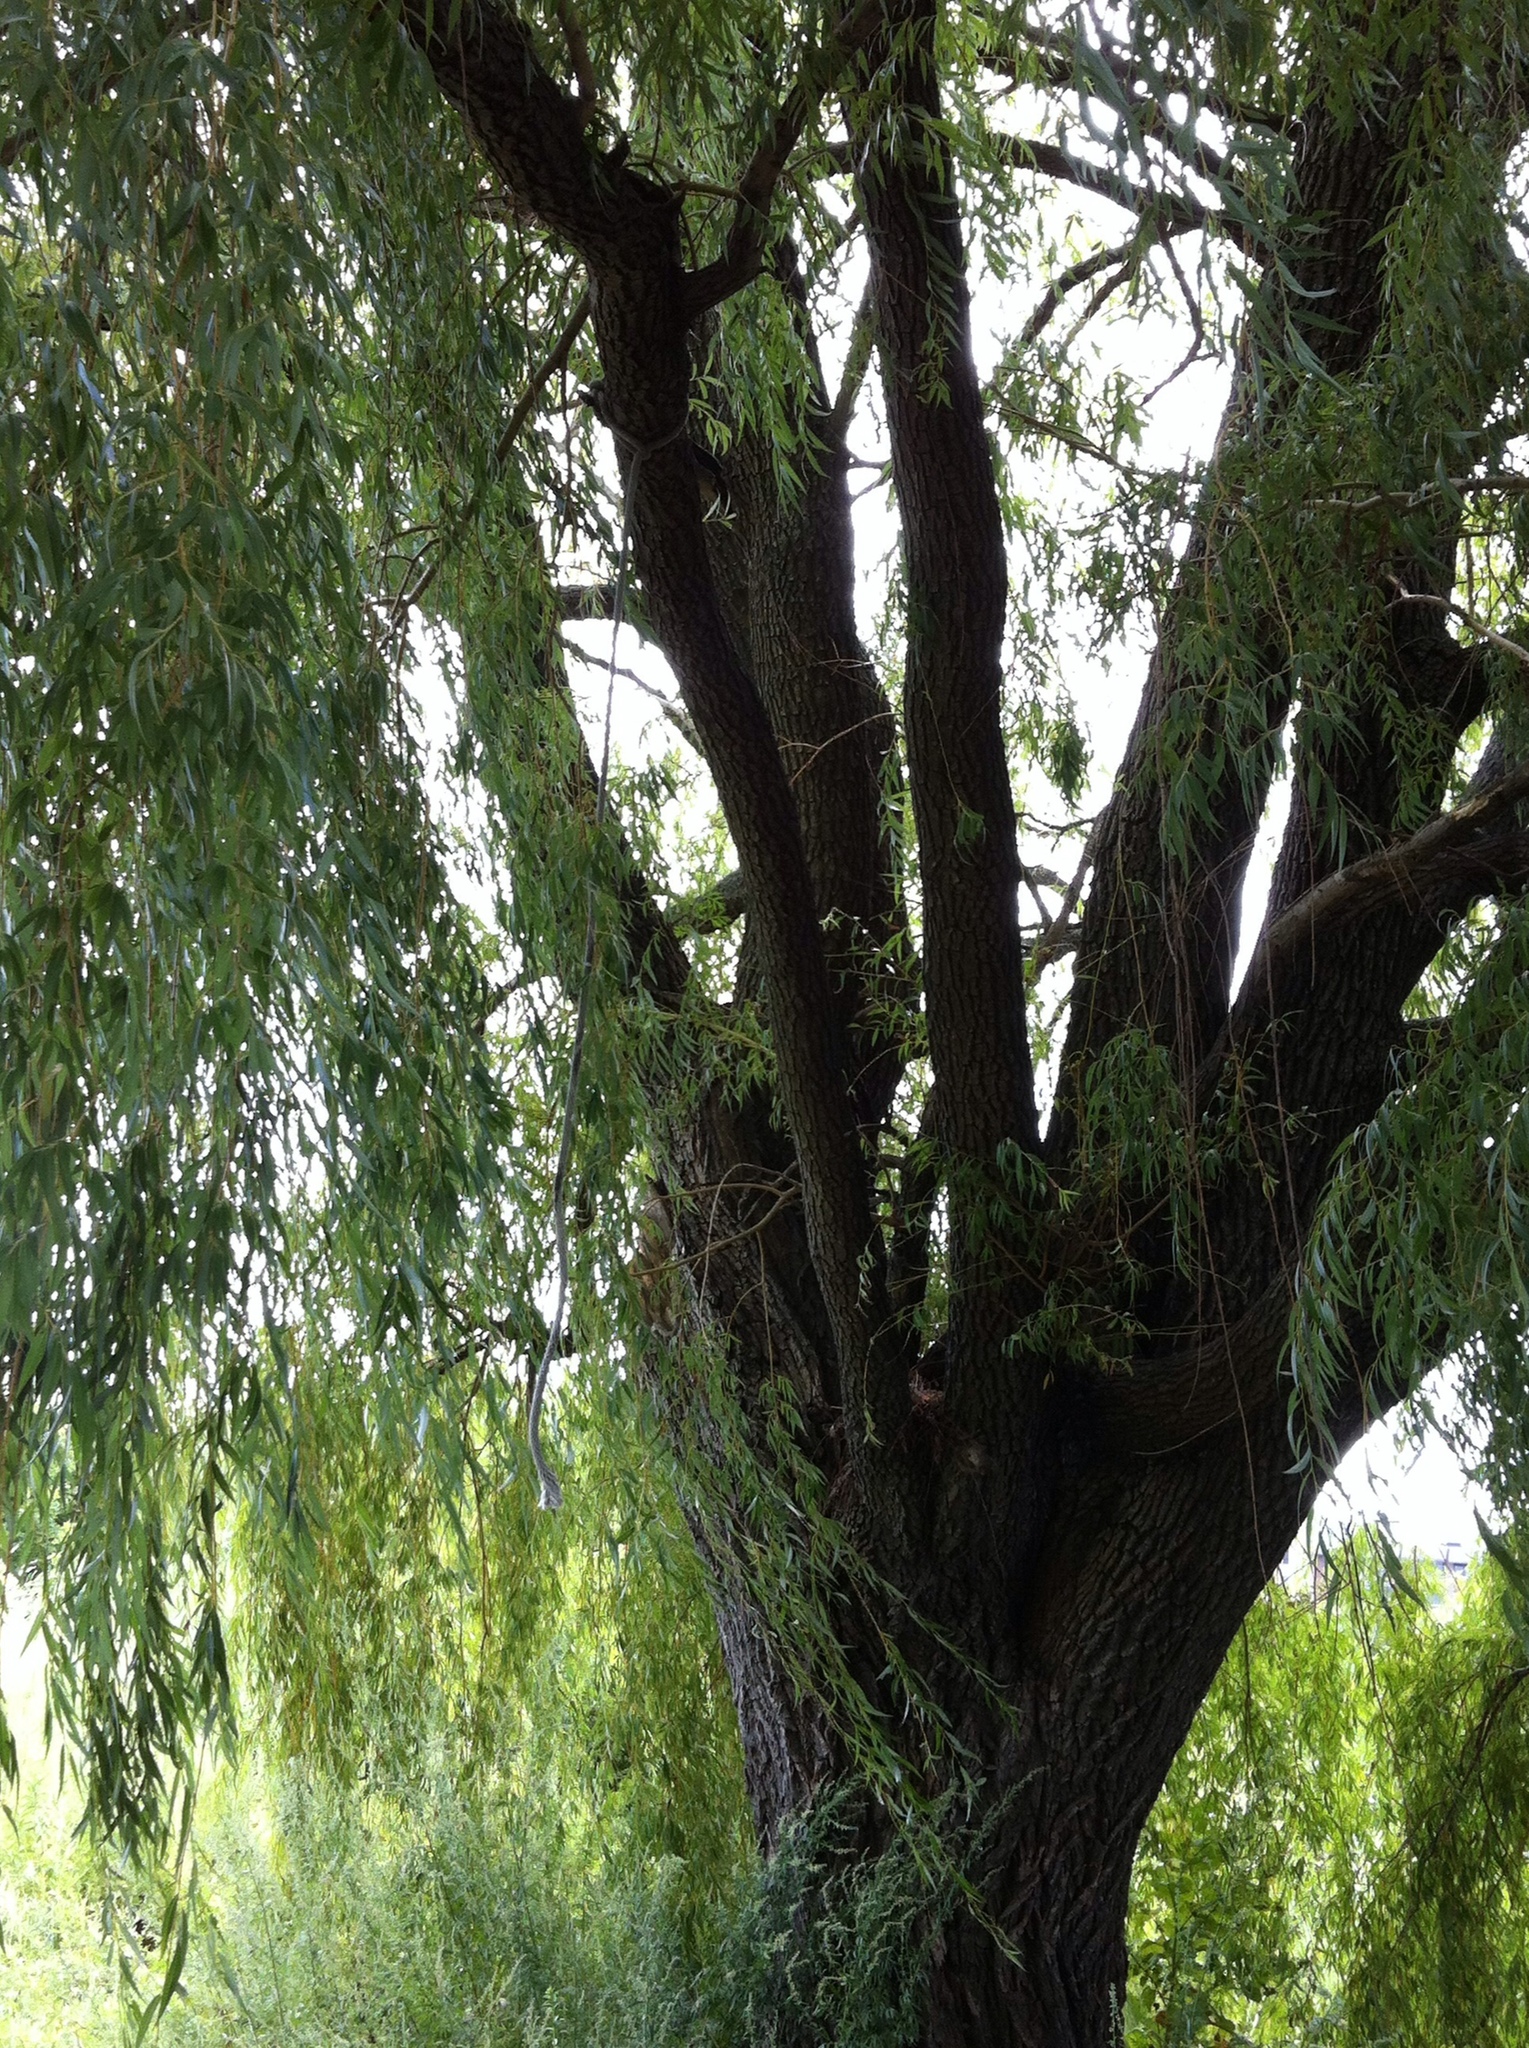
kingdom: Plantae
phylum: Tracheophyta
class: Magnoliopsida
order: Malpighiales
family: Salicaceae
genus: Salix
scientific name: Salix babylonica
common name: Weeping willow
